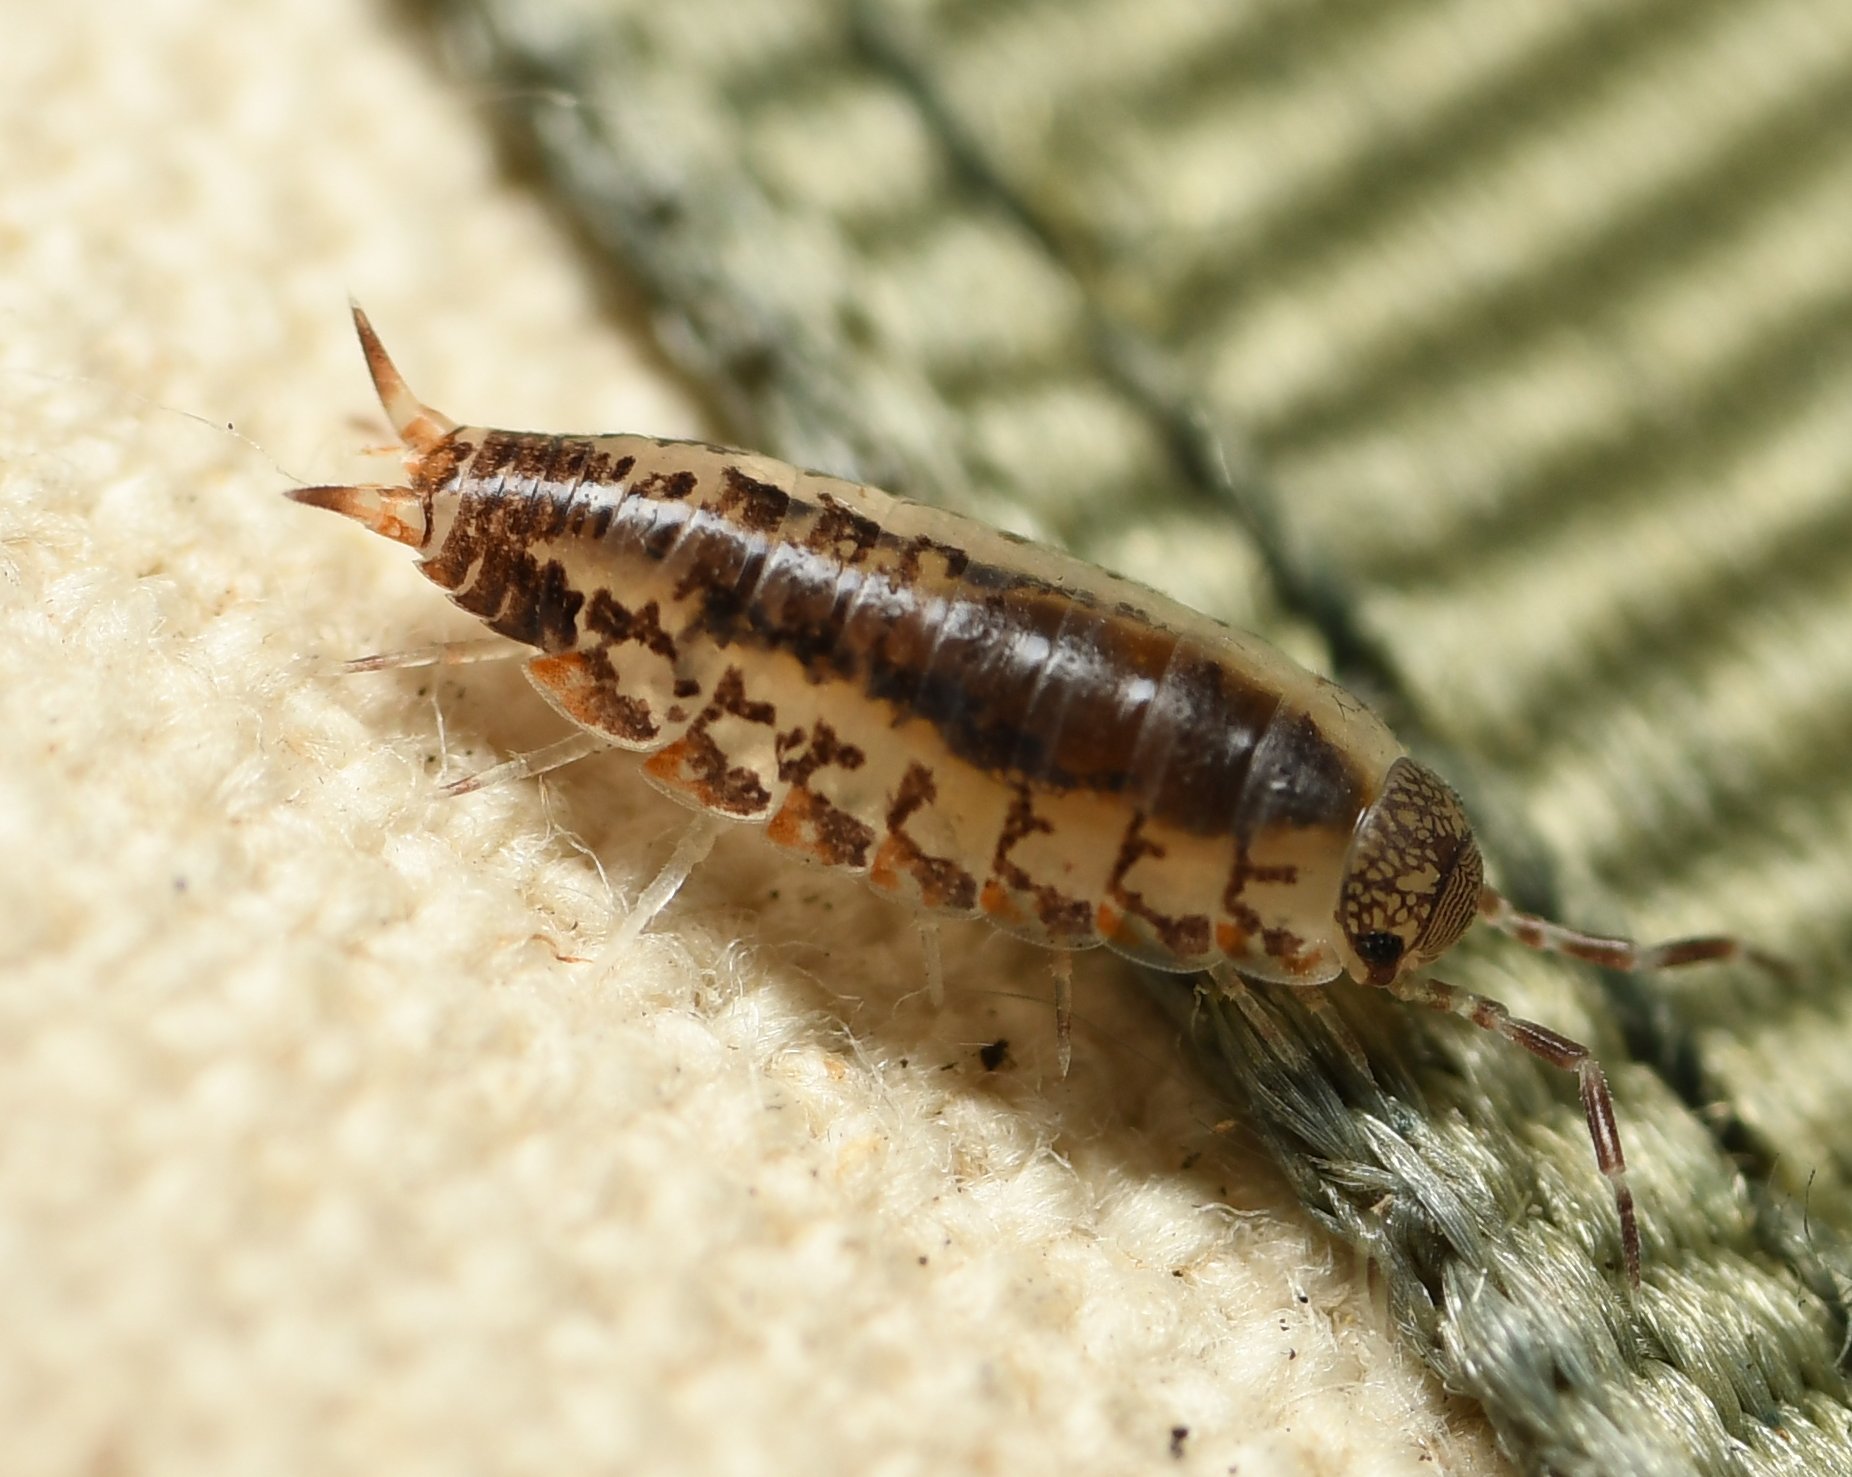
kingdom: Animalia
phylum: Arthropoda
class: Malacostraca
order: Isopoda
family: Rhyscotidae
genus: Rhyscotus
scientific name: Rhyscotus texensis
